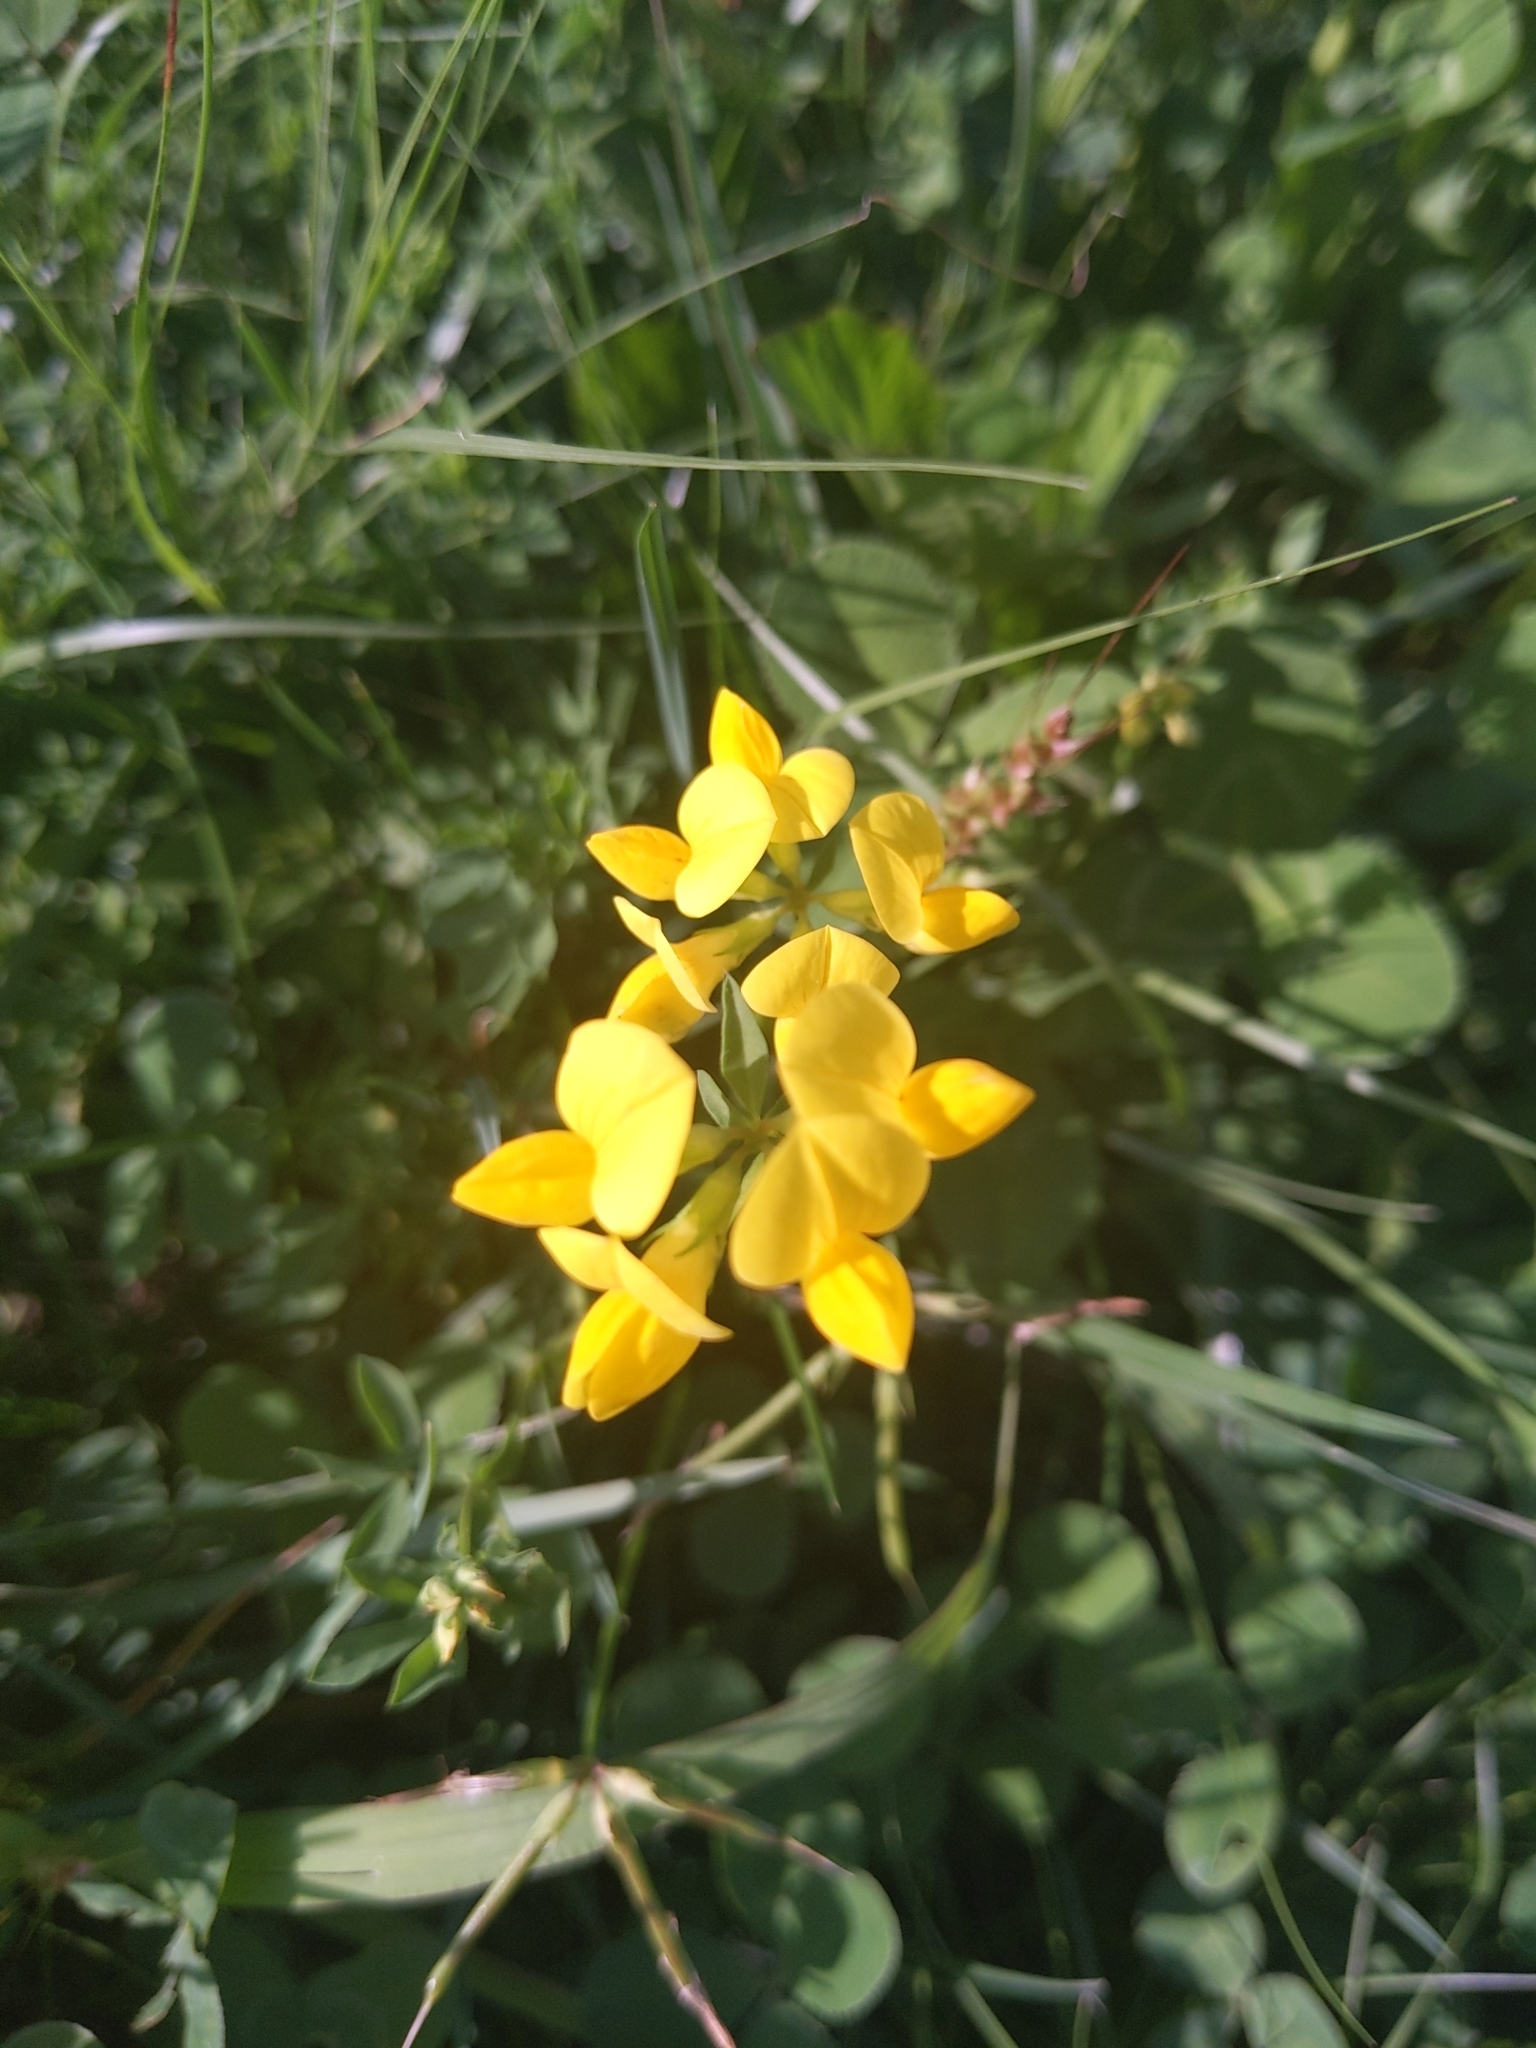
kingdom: Plantae
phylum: Tracheophyta
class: Magnoliopsida
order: Fabales
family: Fabaceae
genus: Lotus
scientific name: Lotus corniculatus
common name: Common bird's-foot-trefoil
